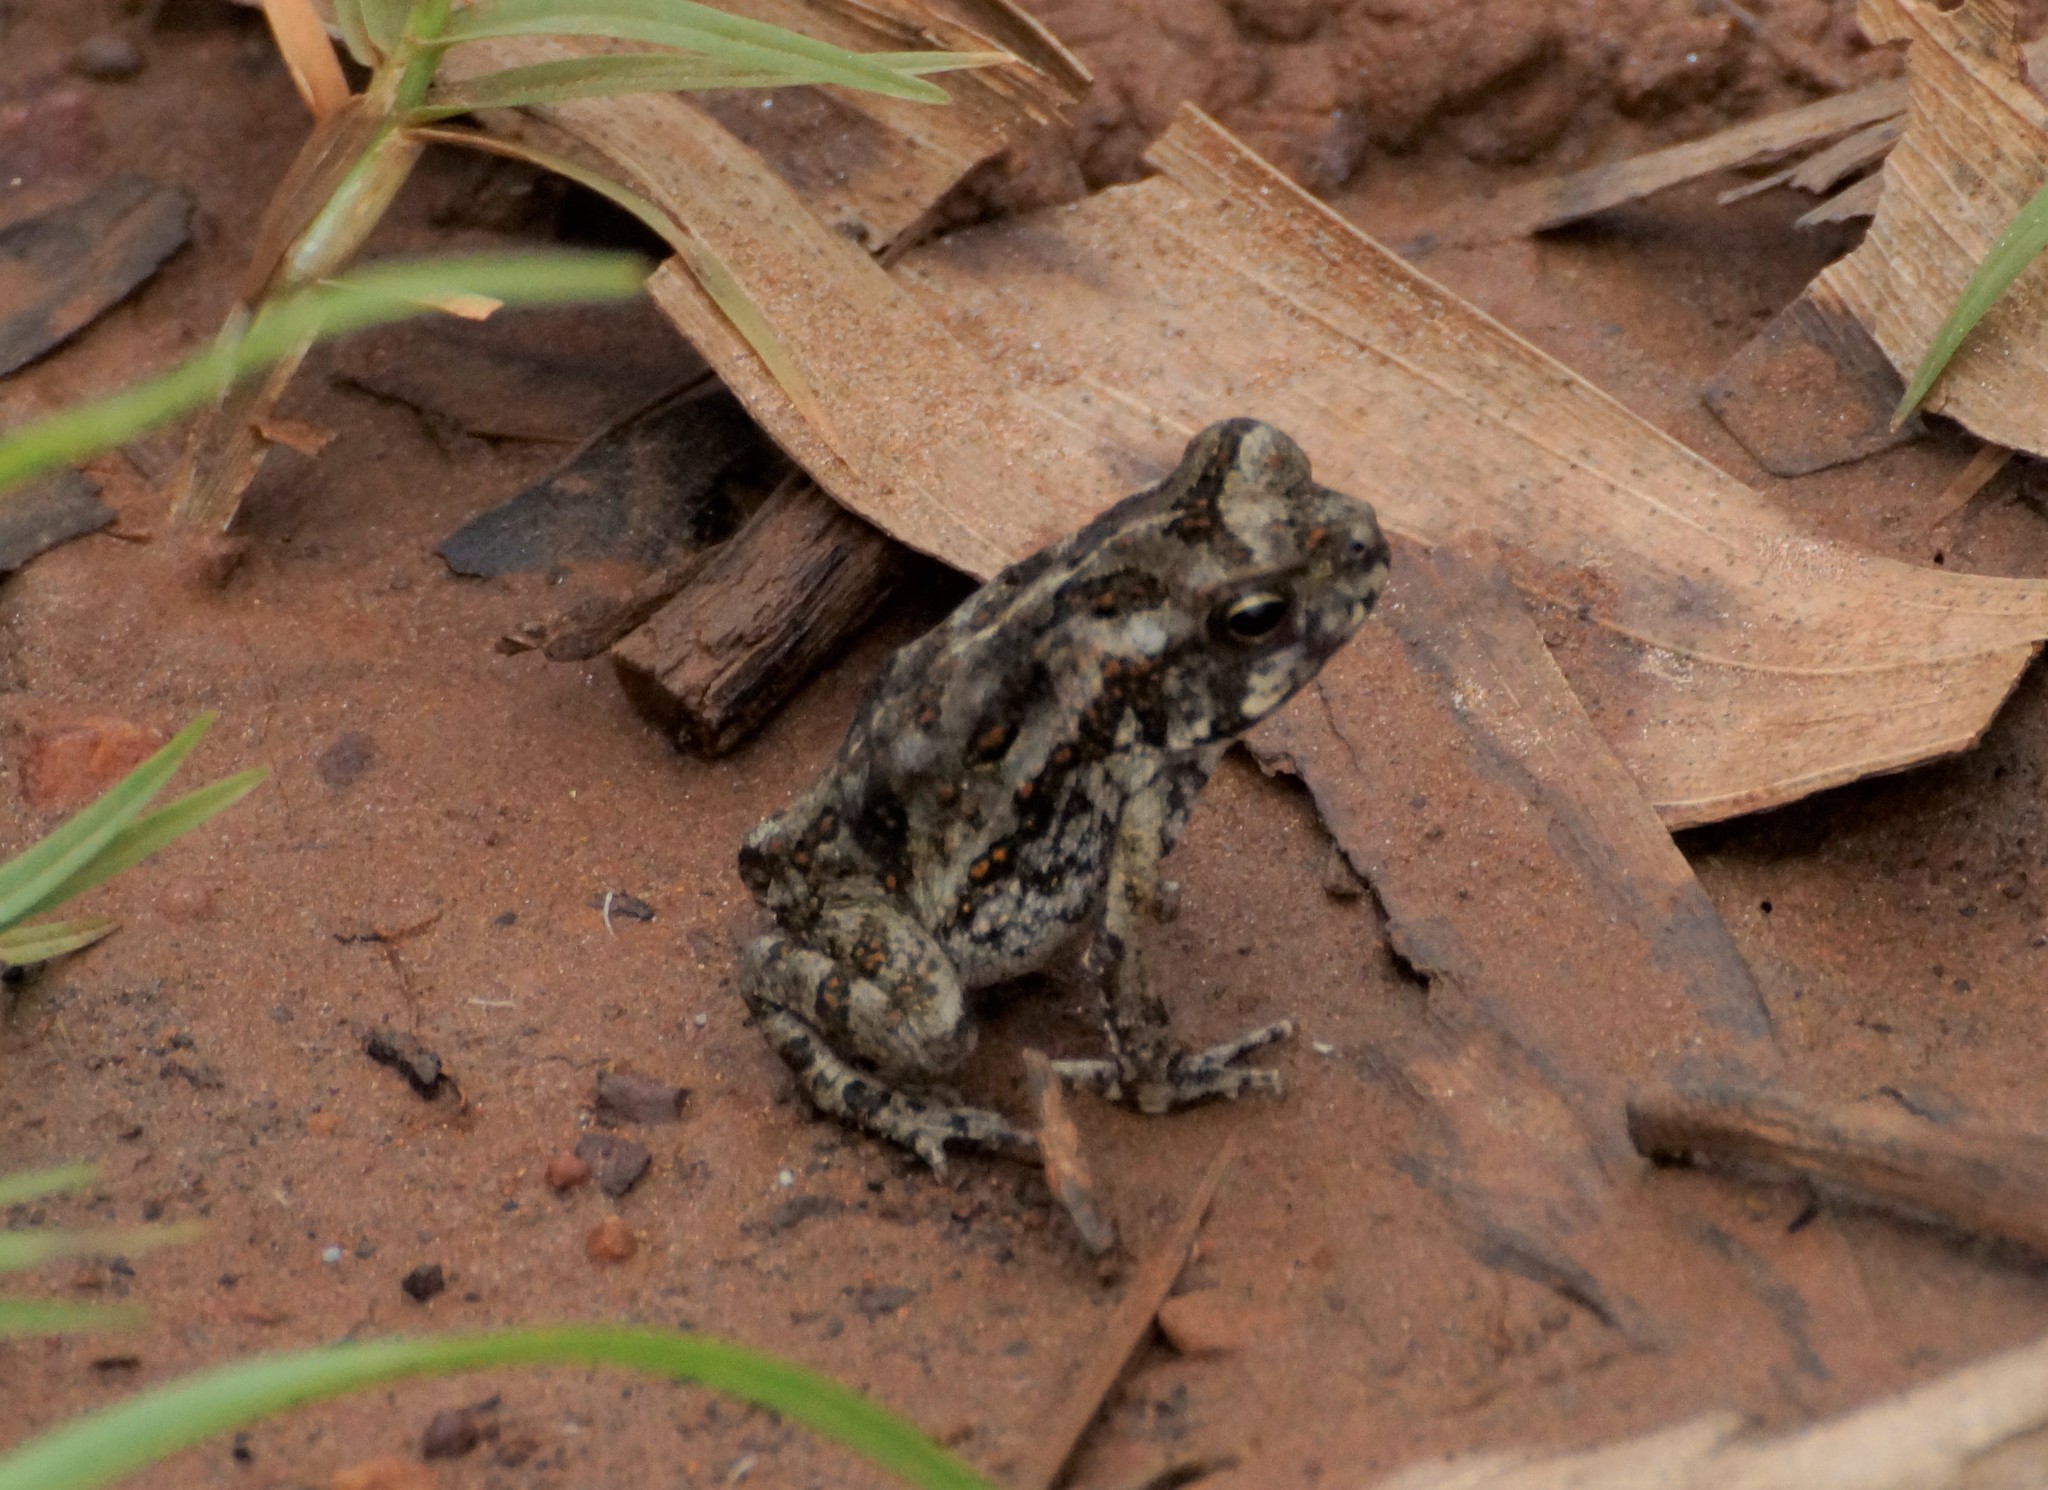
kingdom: Animalia
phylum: Chordata
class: Amphibia
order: Anura
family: Bufonidae
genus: Rhinella
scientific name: Rhinella marina
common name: Cane toad
